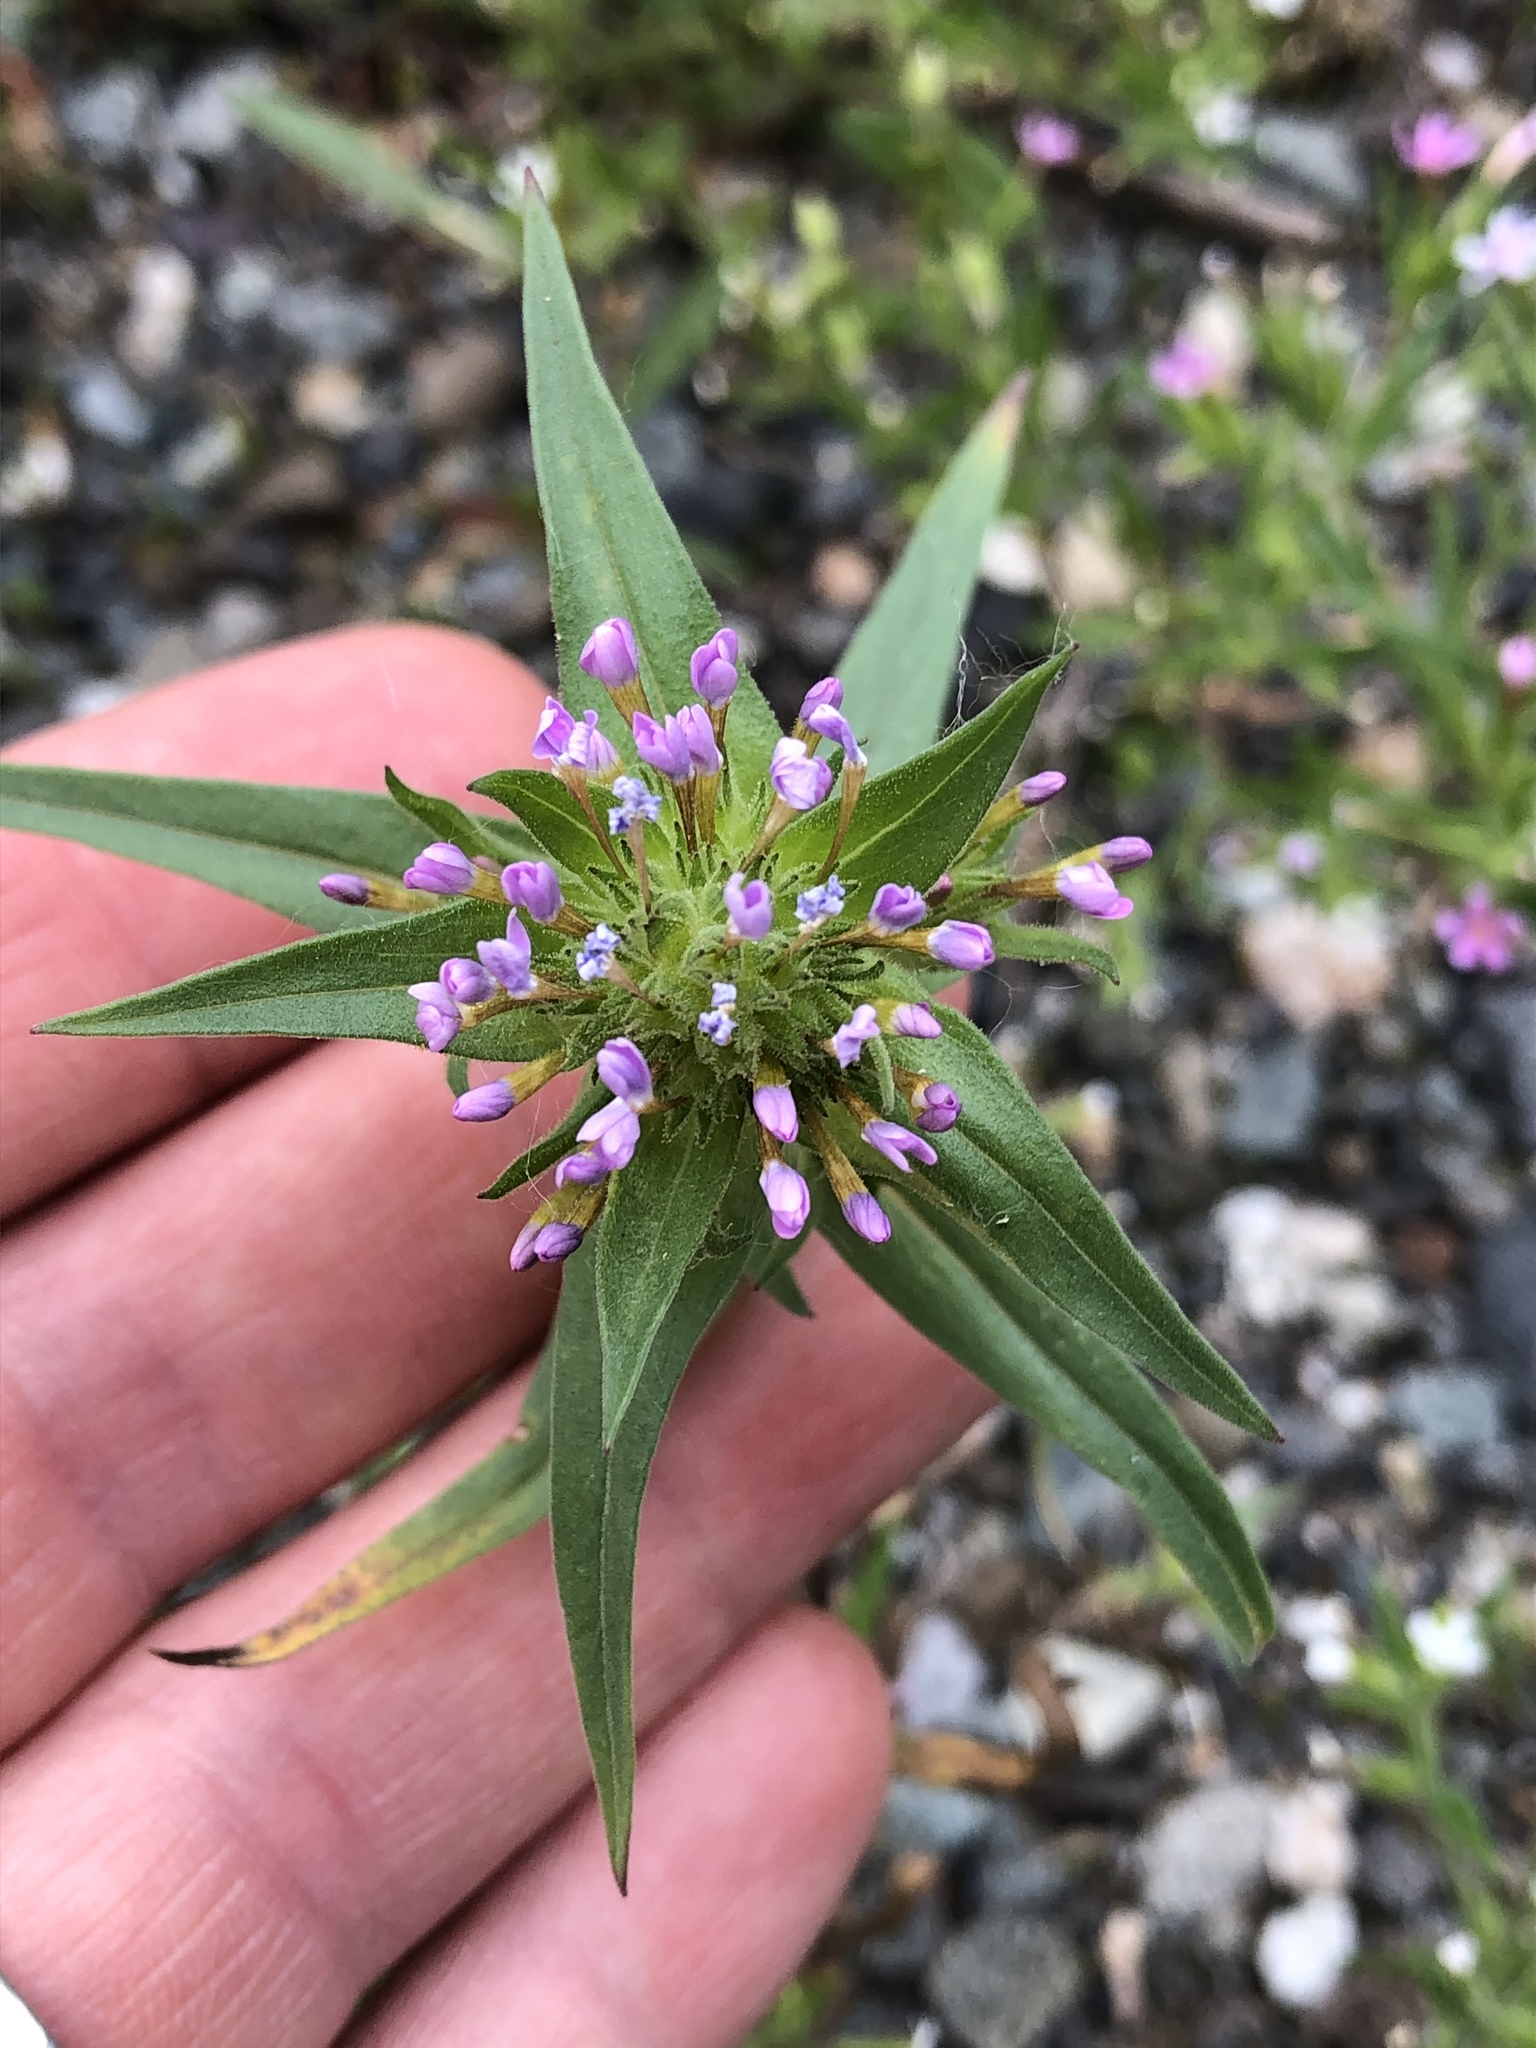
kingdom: Plantae
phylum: Tracheophyta
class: Magnoliopsida
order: Ericales
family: Polemoniaceae
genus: Collomia
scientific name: Collomia linearis
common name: Tiny trumpet
